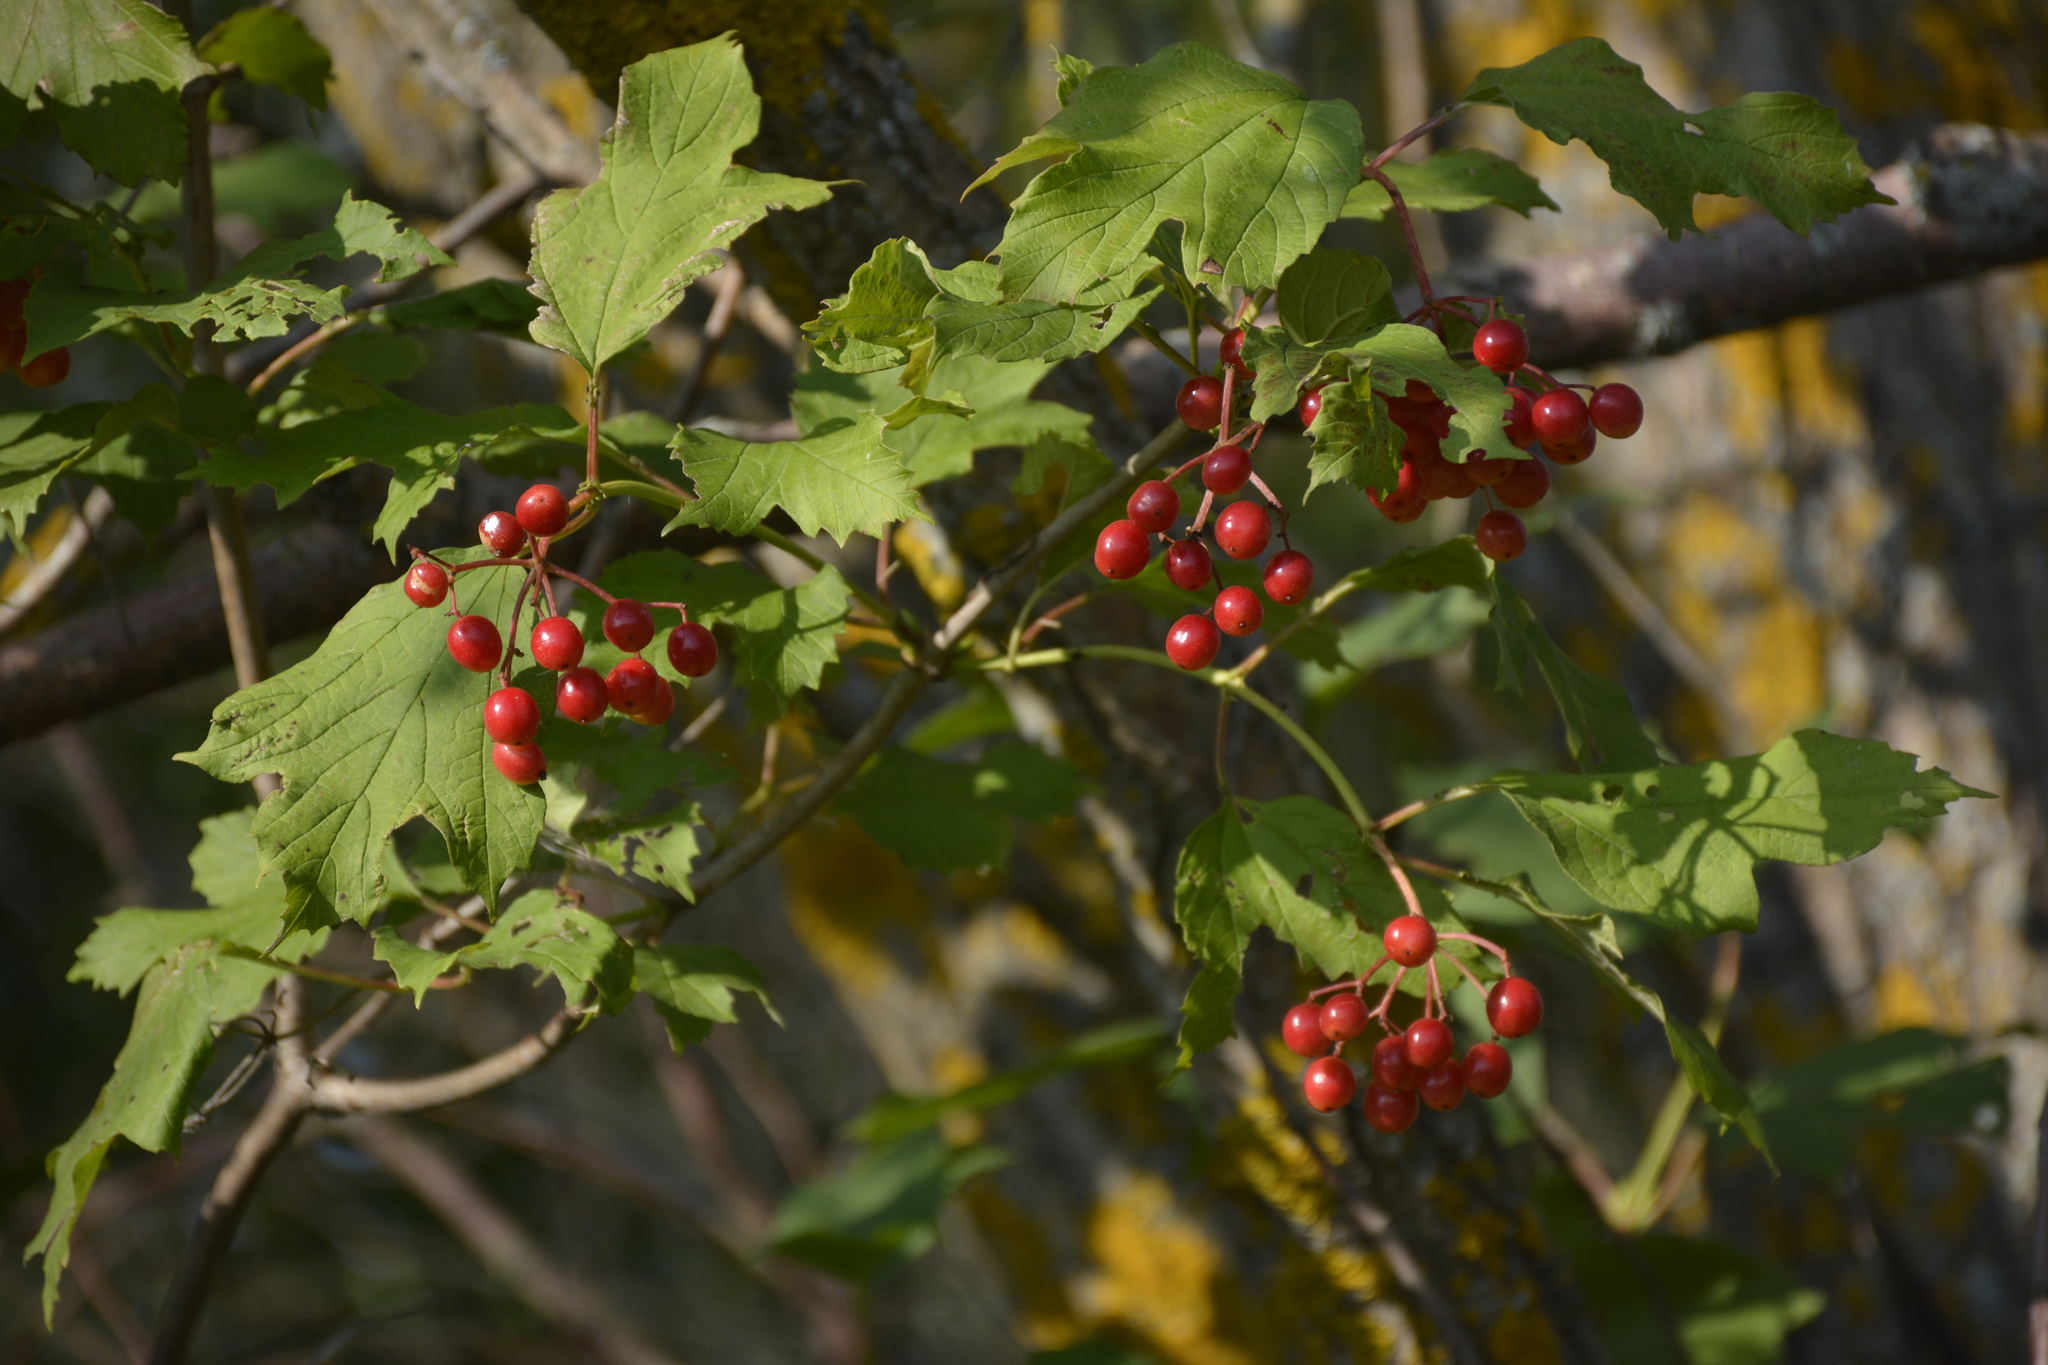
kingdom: Plantae
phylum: Tracheophyta
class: Magnoliopsida
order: Dipsacales
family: Viburnaceae
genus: Viburnum
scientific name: Viburnum opulus
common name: Guelder-rose
